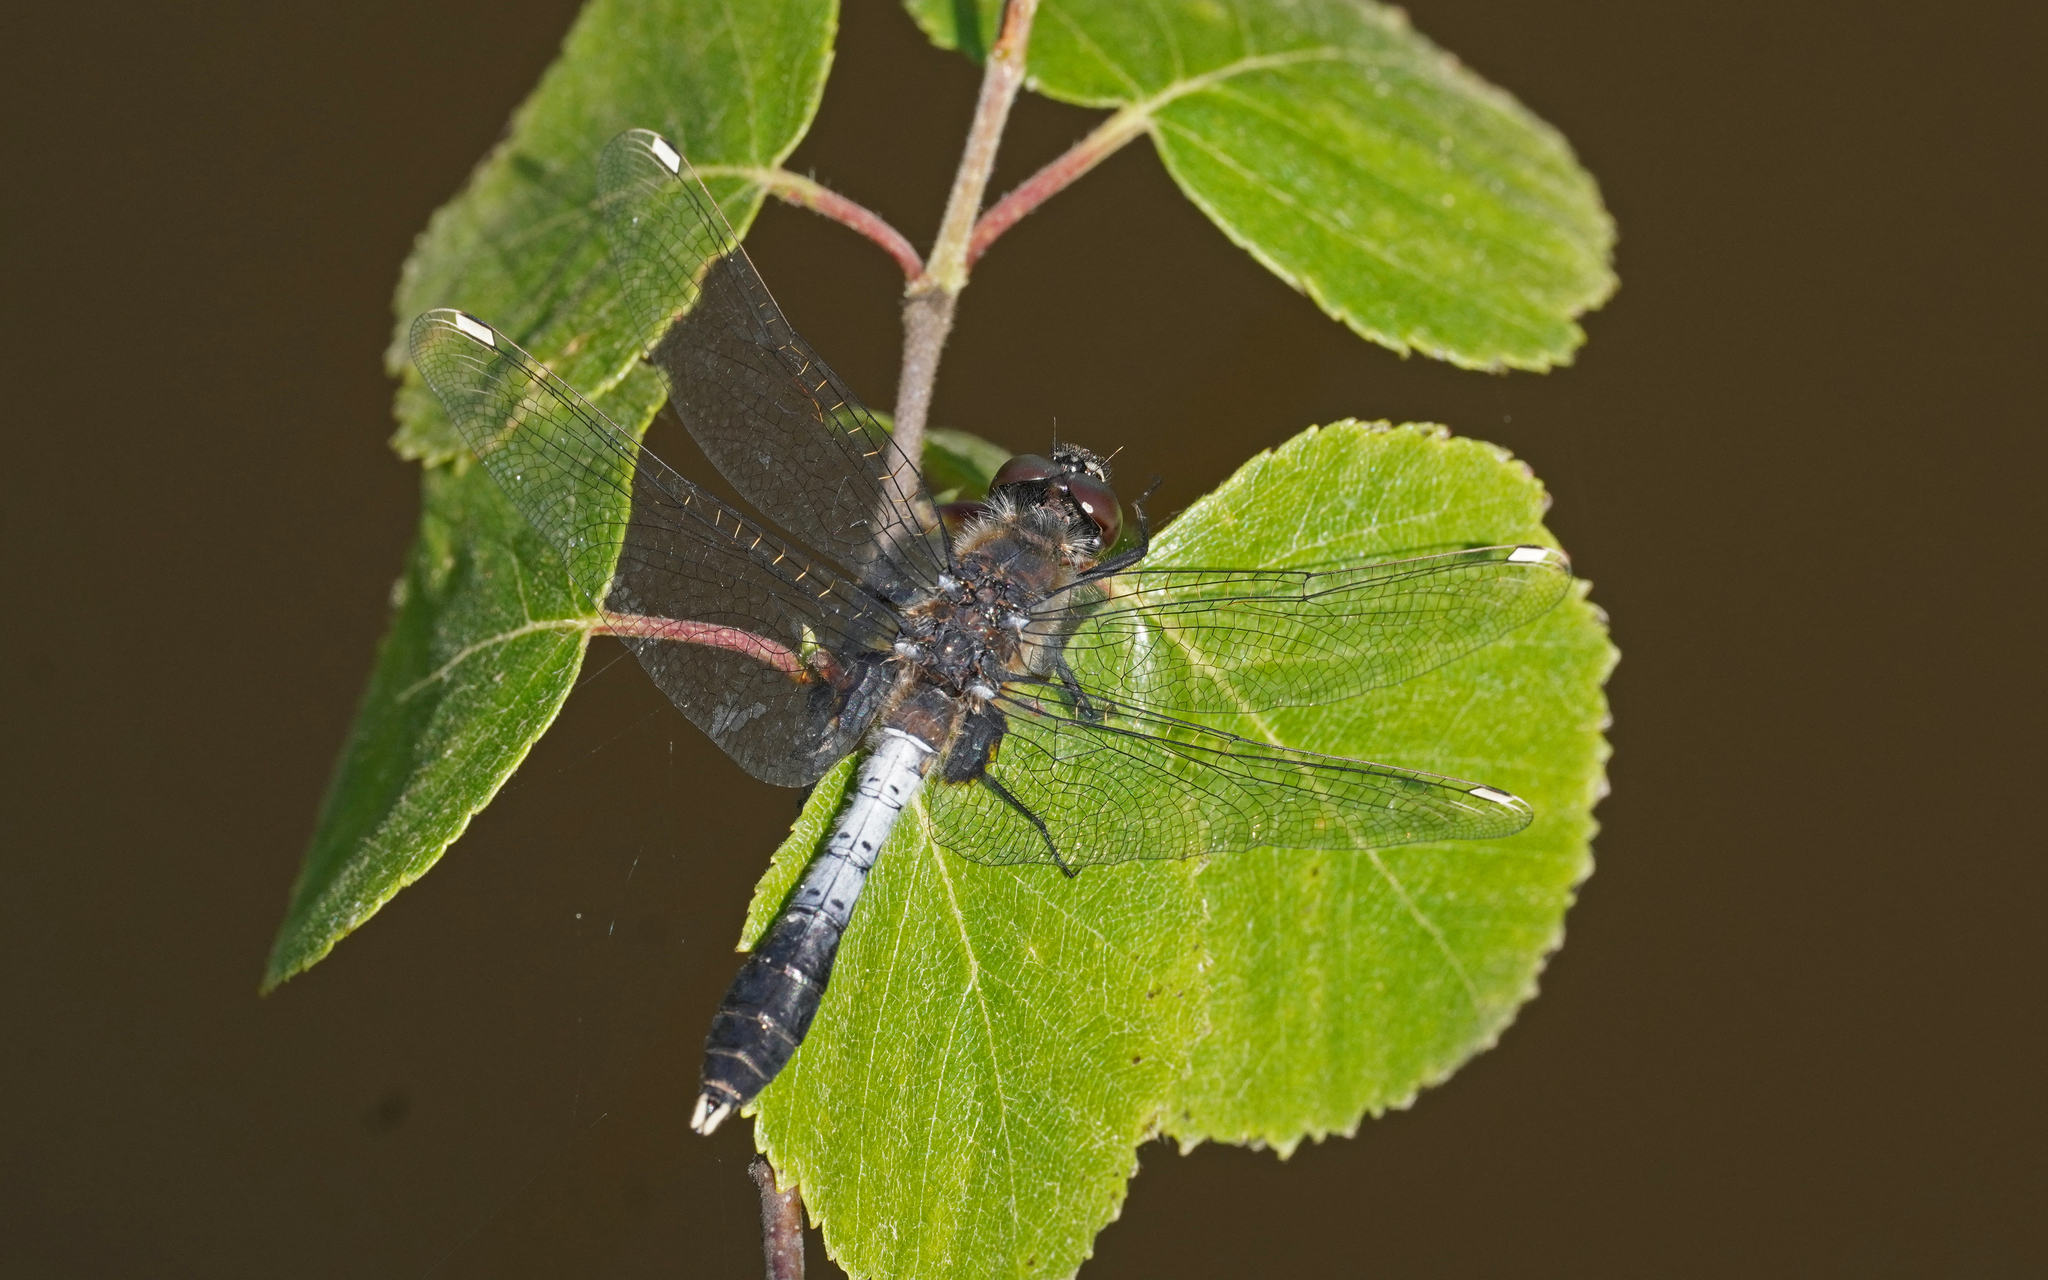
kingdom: Animalia
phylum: Arthropoda
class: Insecta
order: Odonata
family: Libellulidae
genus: Leucorrhinia
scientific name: Leucorrhinia caudalis
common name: Lilypad whiteface
